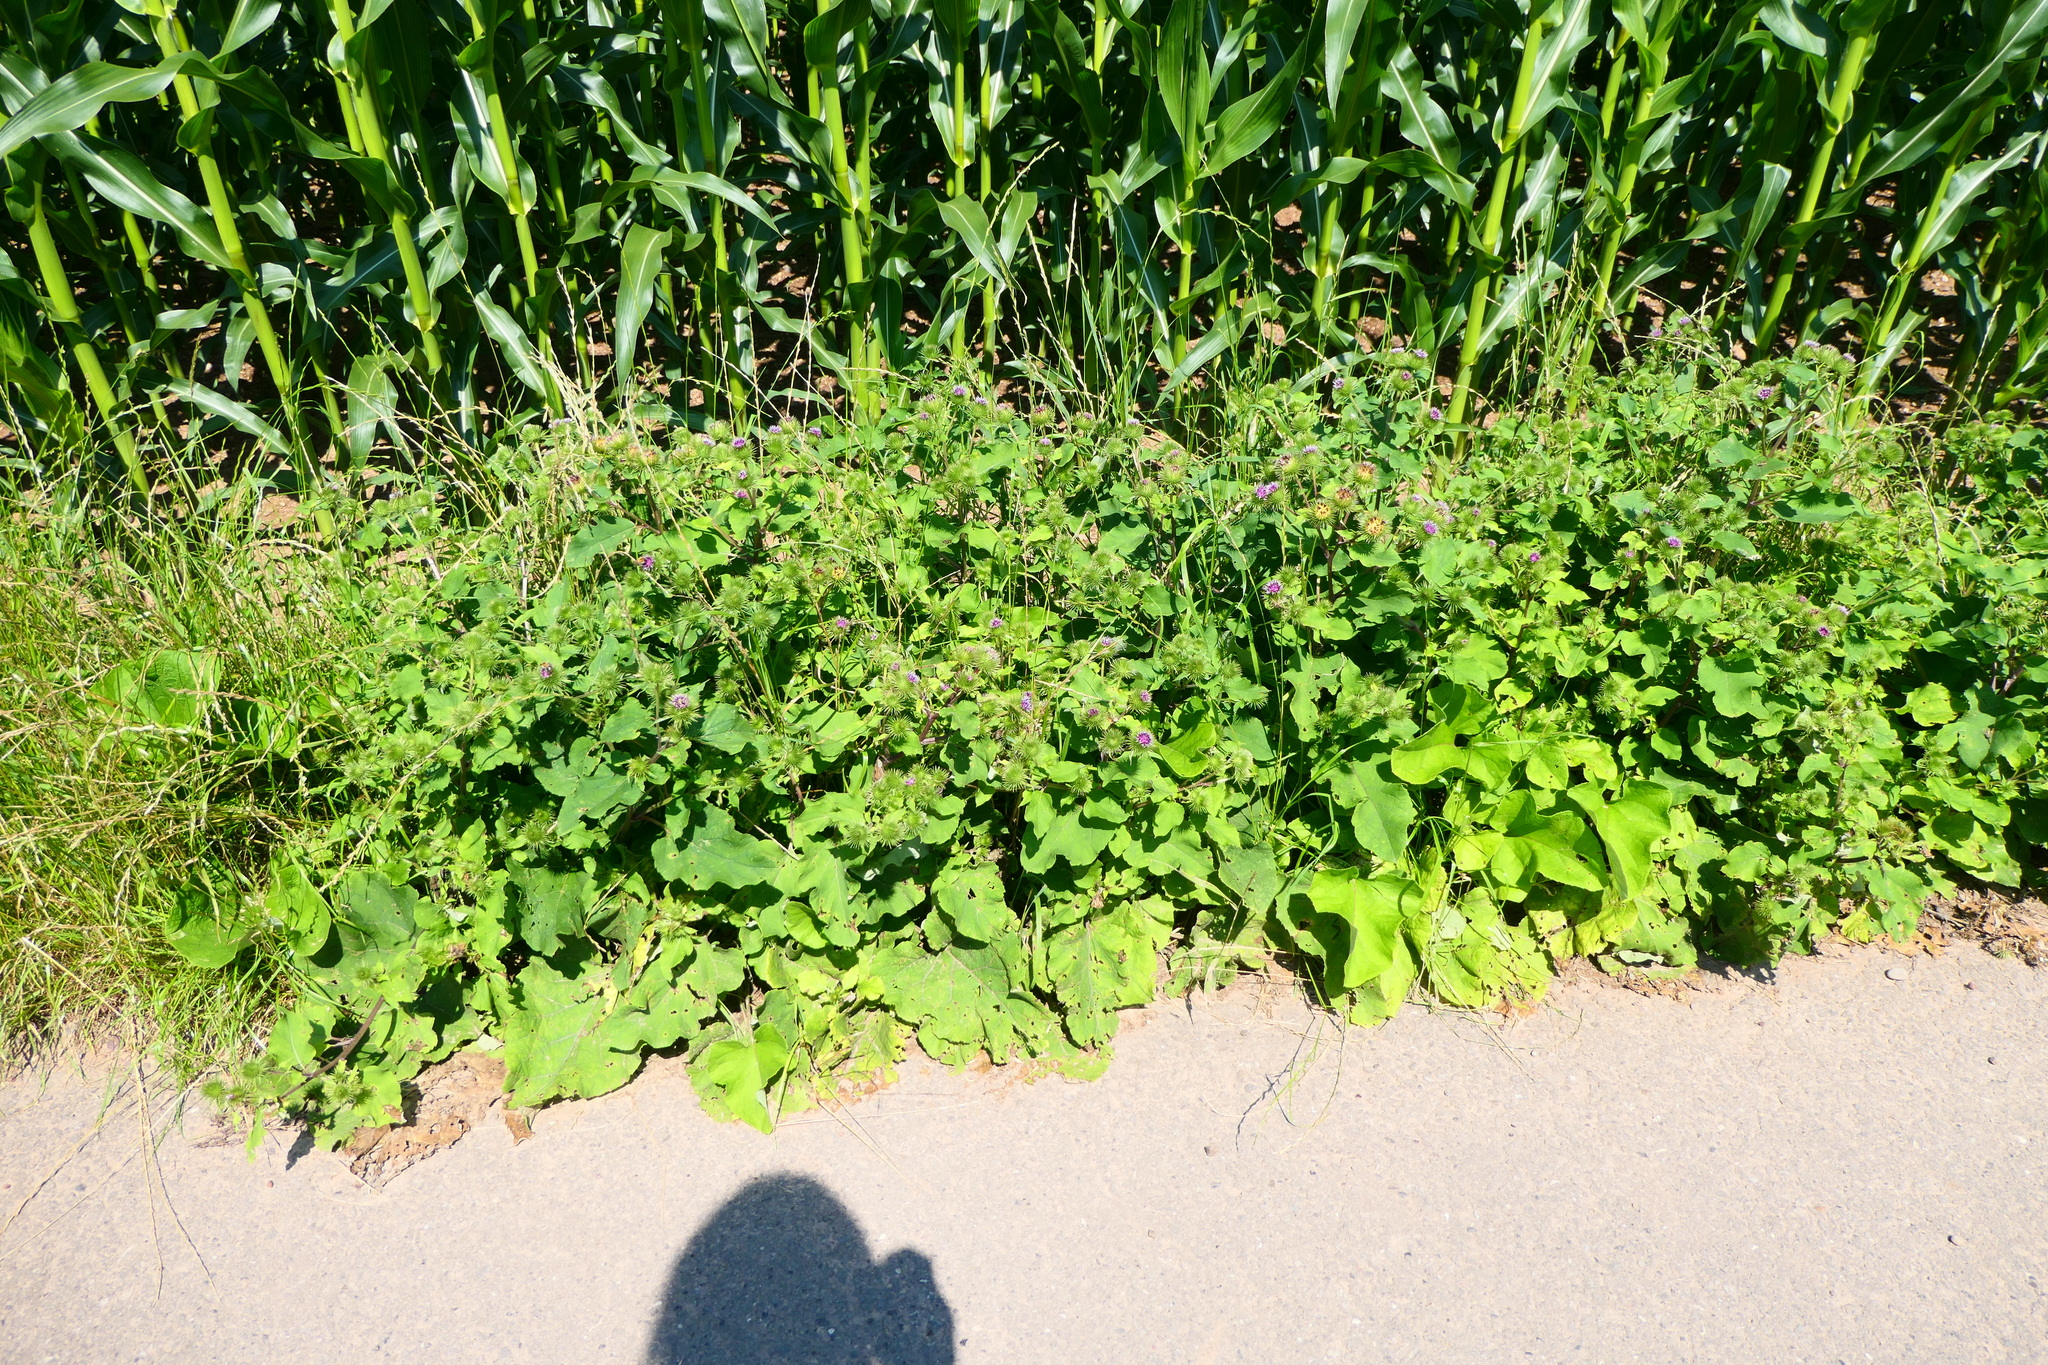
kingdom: Plantae
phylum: Tracheophyta
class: Magnoliopsida
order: Asterales
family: Asteraceae
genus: Arctium
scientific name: Arctium minus
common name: Lesser burdock
